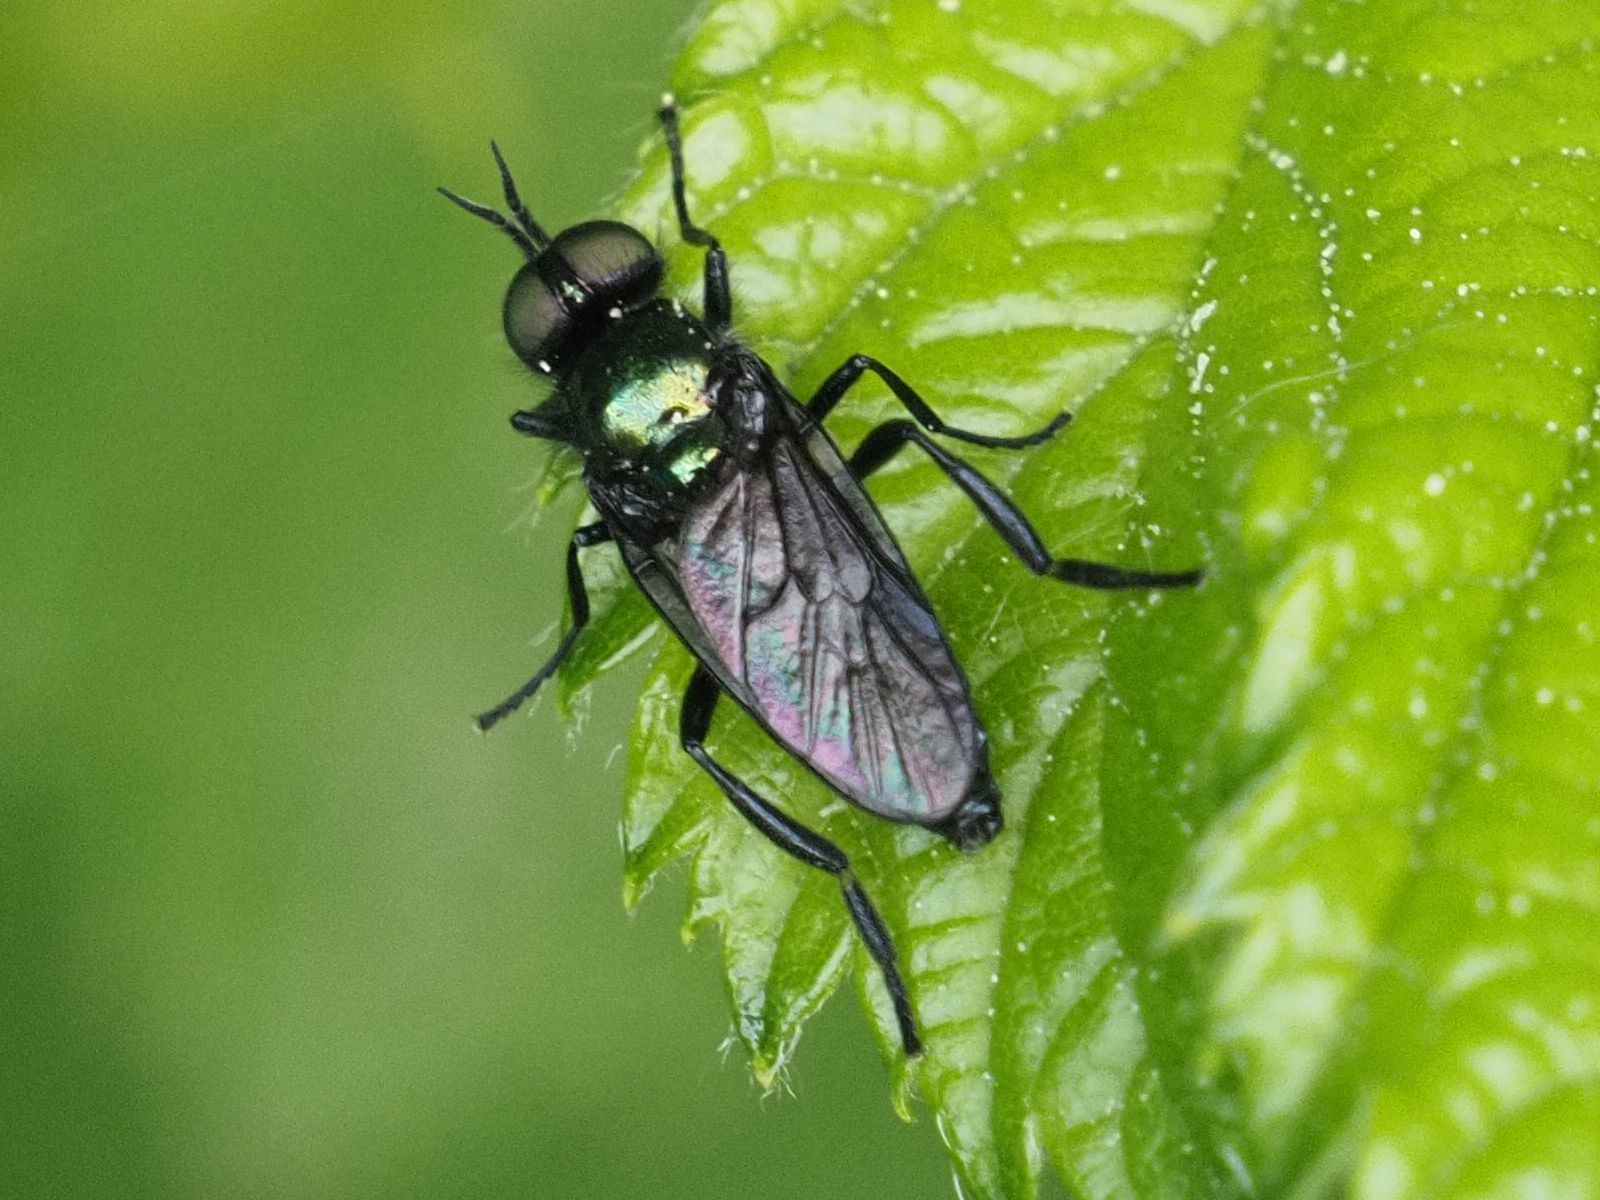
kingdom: Animalia
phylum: Arthropoda
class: Insecta
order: Diptera
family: Stratiomyidae
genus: Actina
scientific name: Actina chalybea
